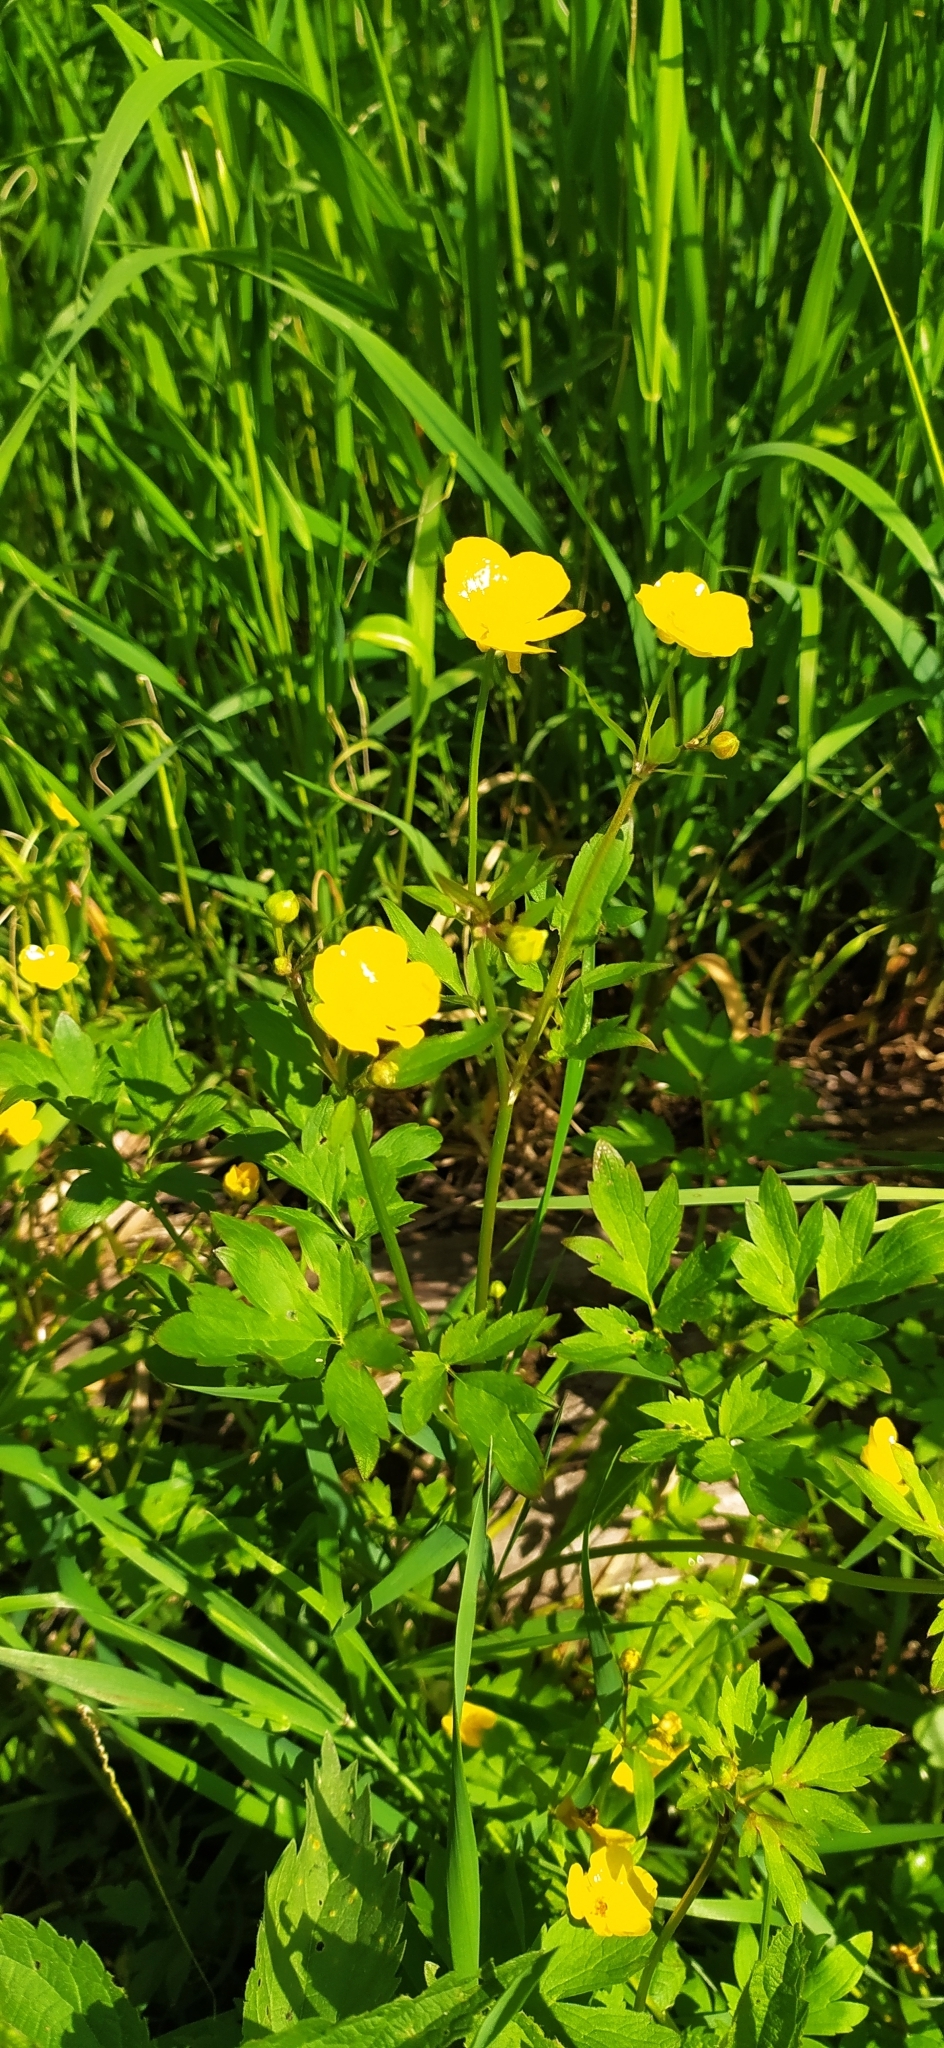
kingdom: Plantae
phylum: Tracheophyta
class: Magnoliopsida
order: Ranunculales
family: Ranunculaceae
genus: Ranunculus
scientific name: Ranunculus repens
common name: Creeping buttercup
